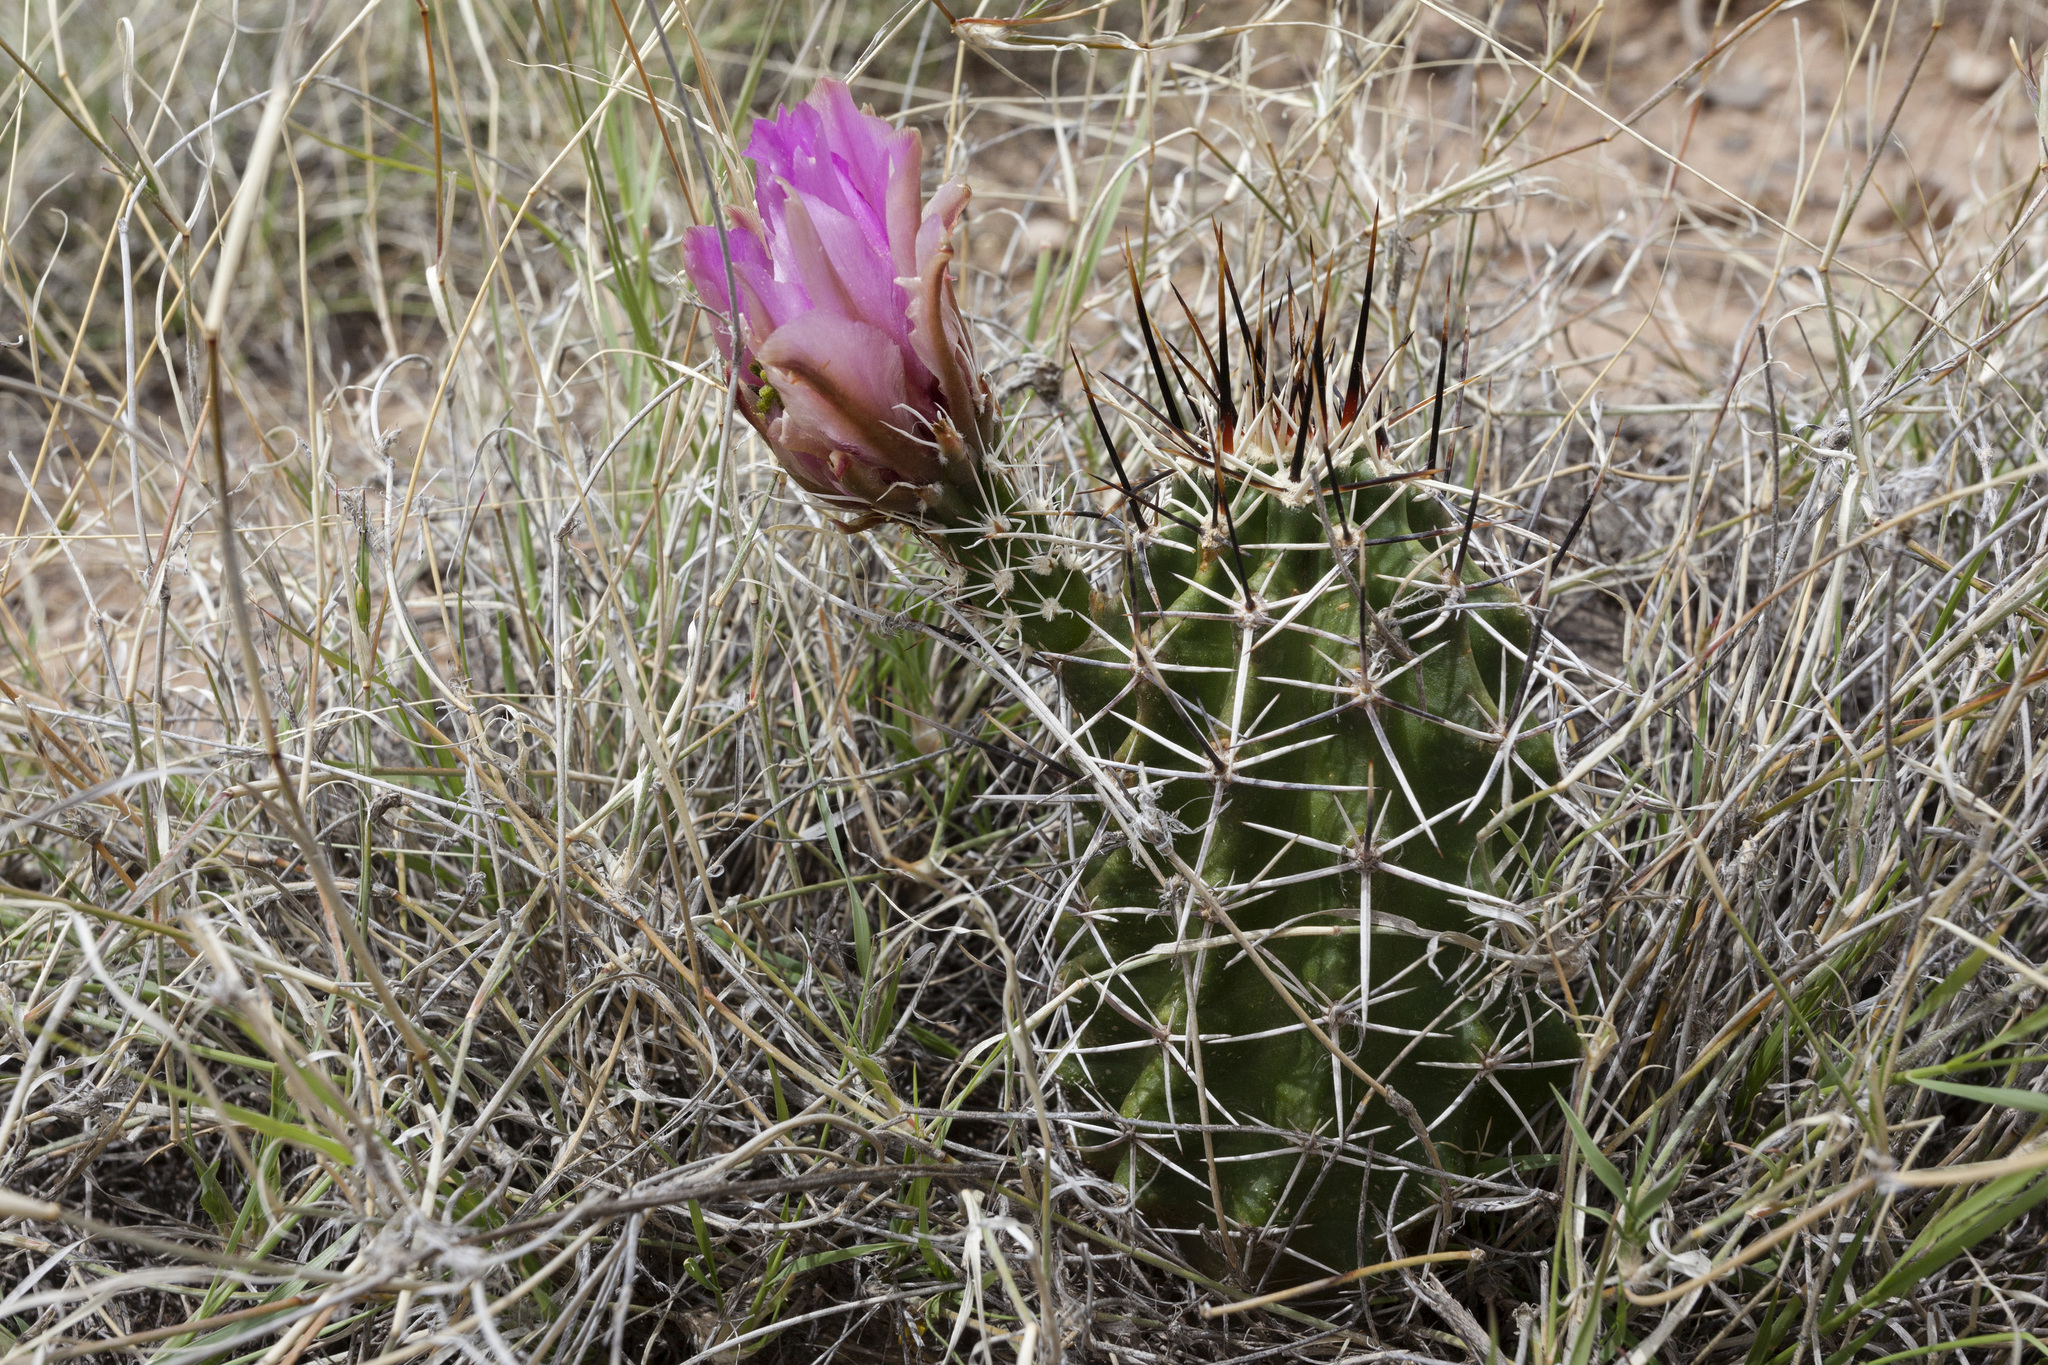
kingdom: Plantae
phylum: Tracheophyta
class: Magnoliopsida
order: Caryophyllales
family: Cactaceae
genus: Echinocereus
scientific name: Echinocereus fendleri
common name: Fendler's hedgehog cactus
